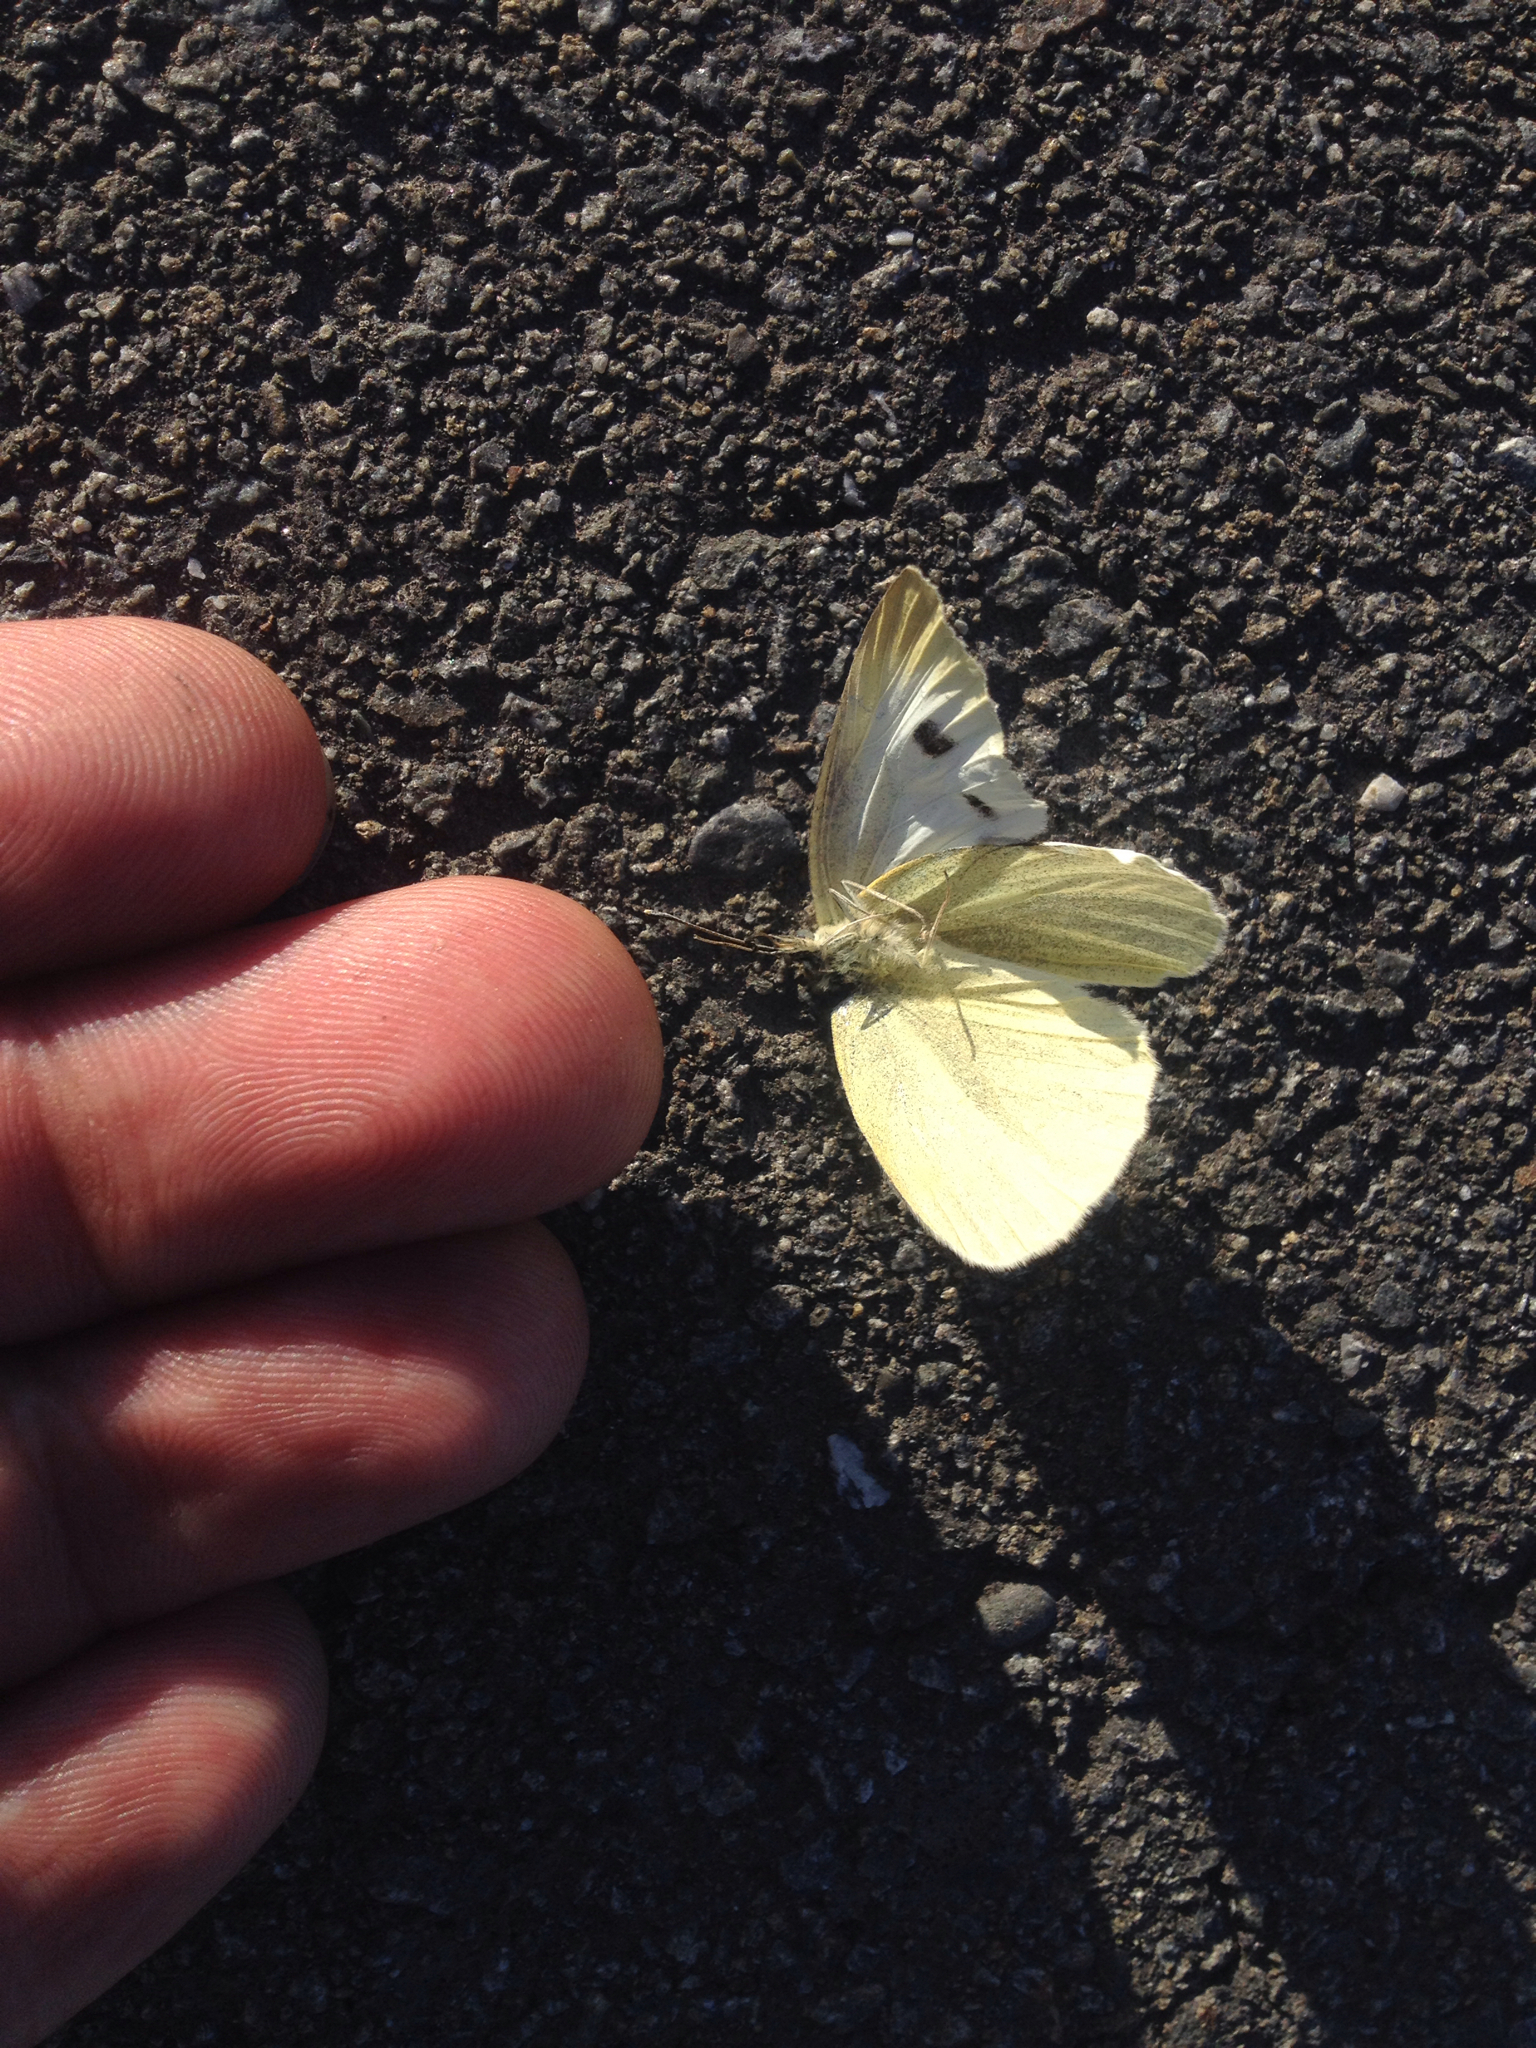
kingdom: Animalia
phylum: Arthropoda
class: Insecta
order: Lepidoptera
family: Pieridae
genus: Pieris
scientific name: Pieris rapae
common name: Small white
